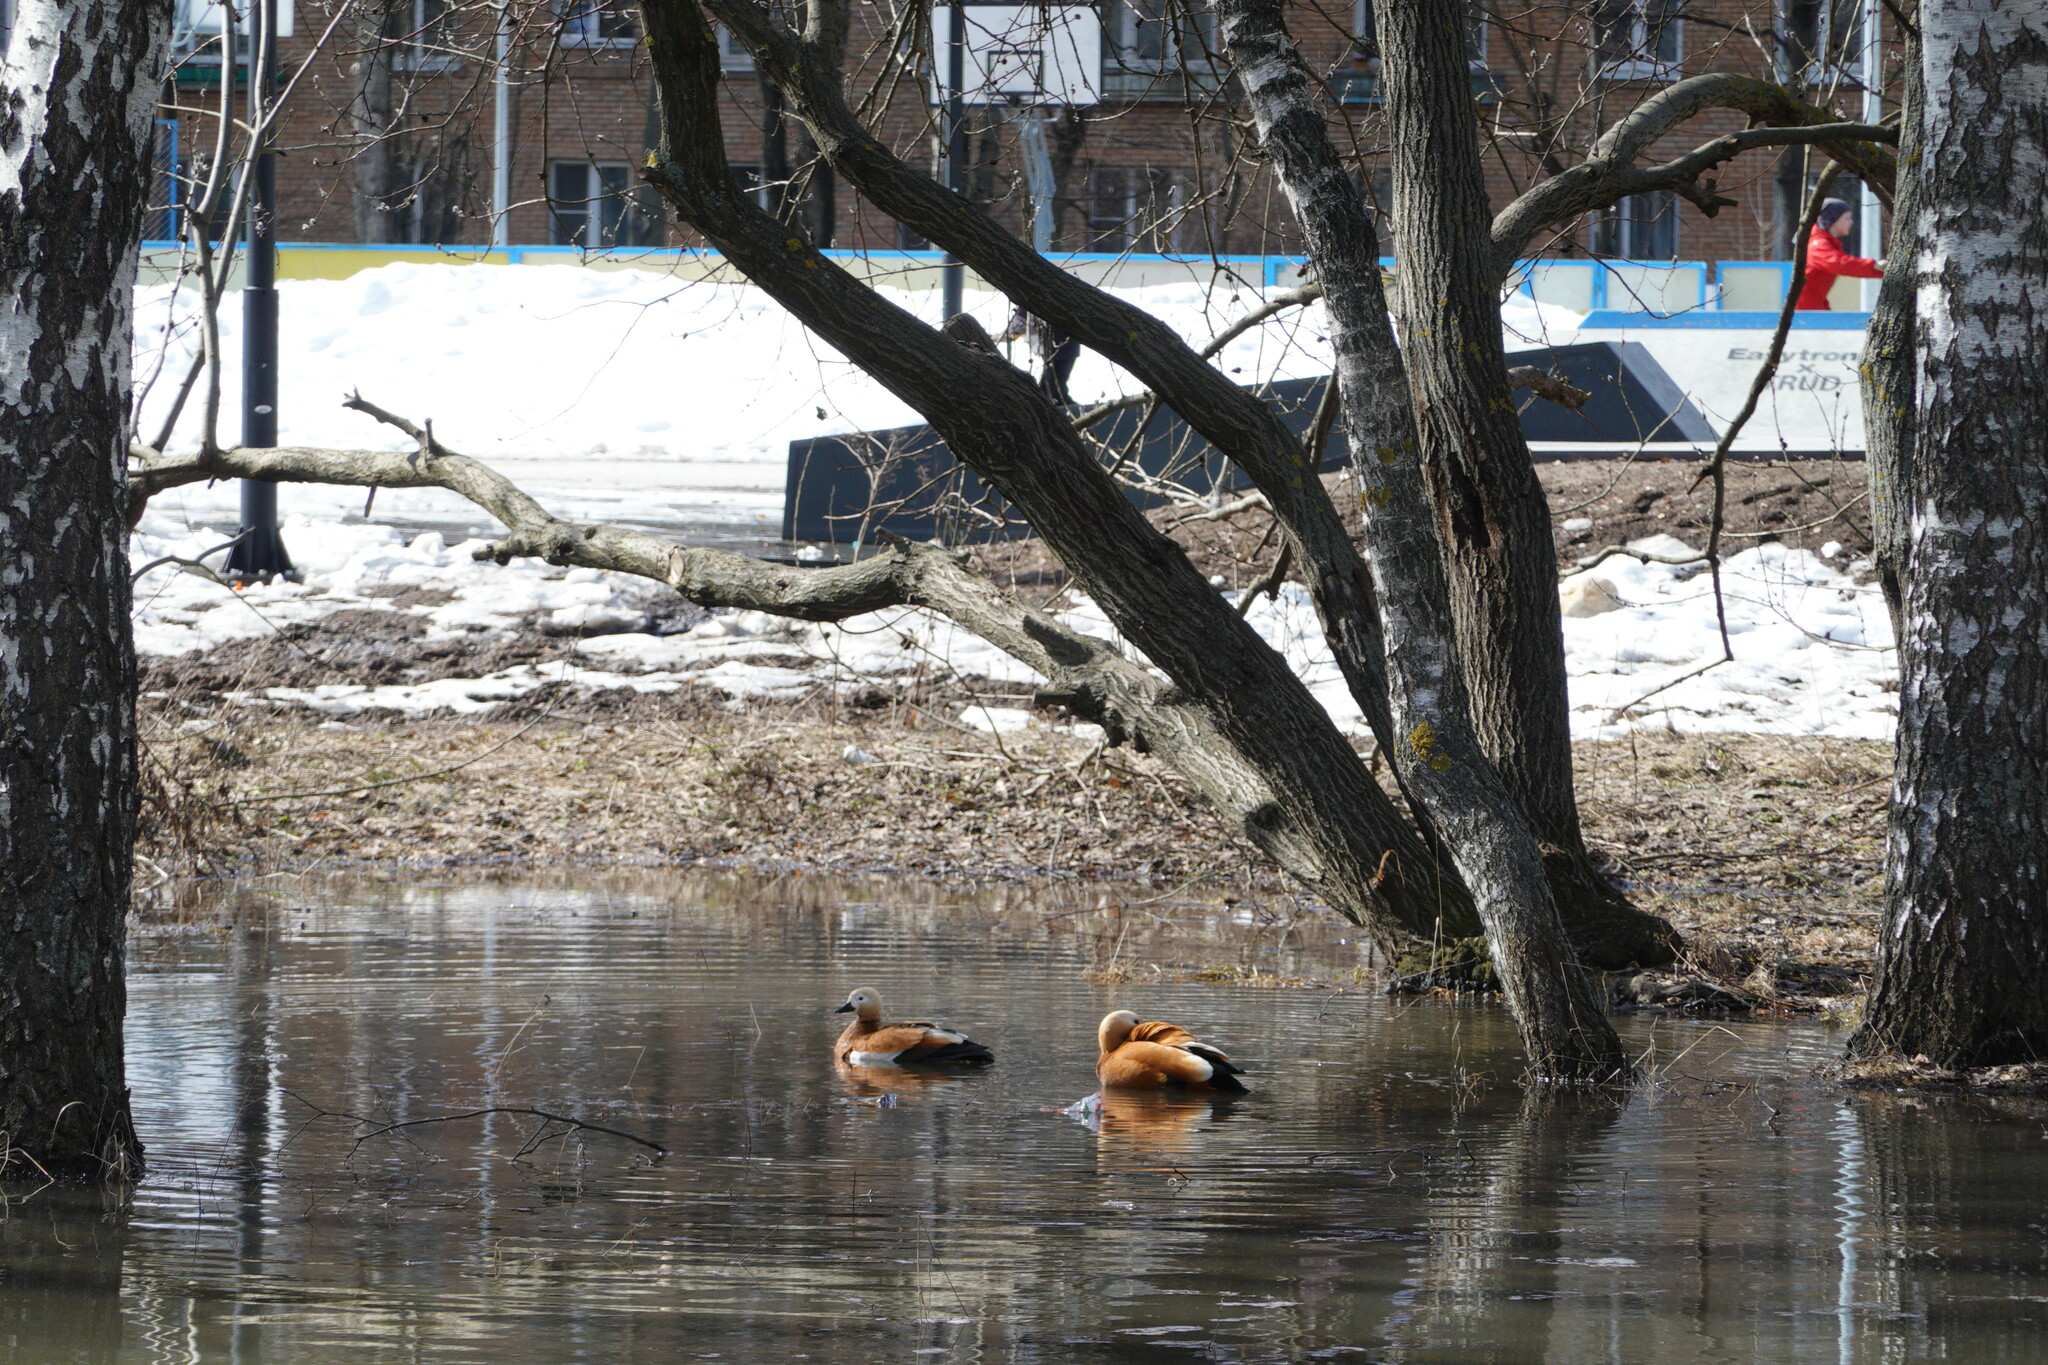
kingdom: Animalia
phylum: Chordata
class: Aves
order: Anseriformes
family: Anatidae
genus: Tadorna
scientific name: Tadorna ferruginea
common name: Ruddy shelduck
